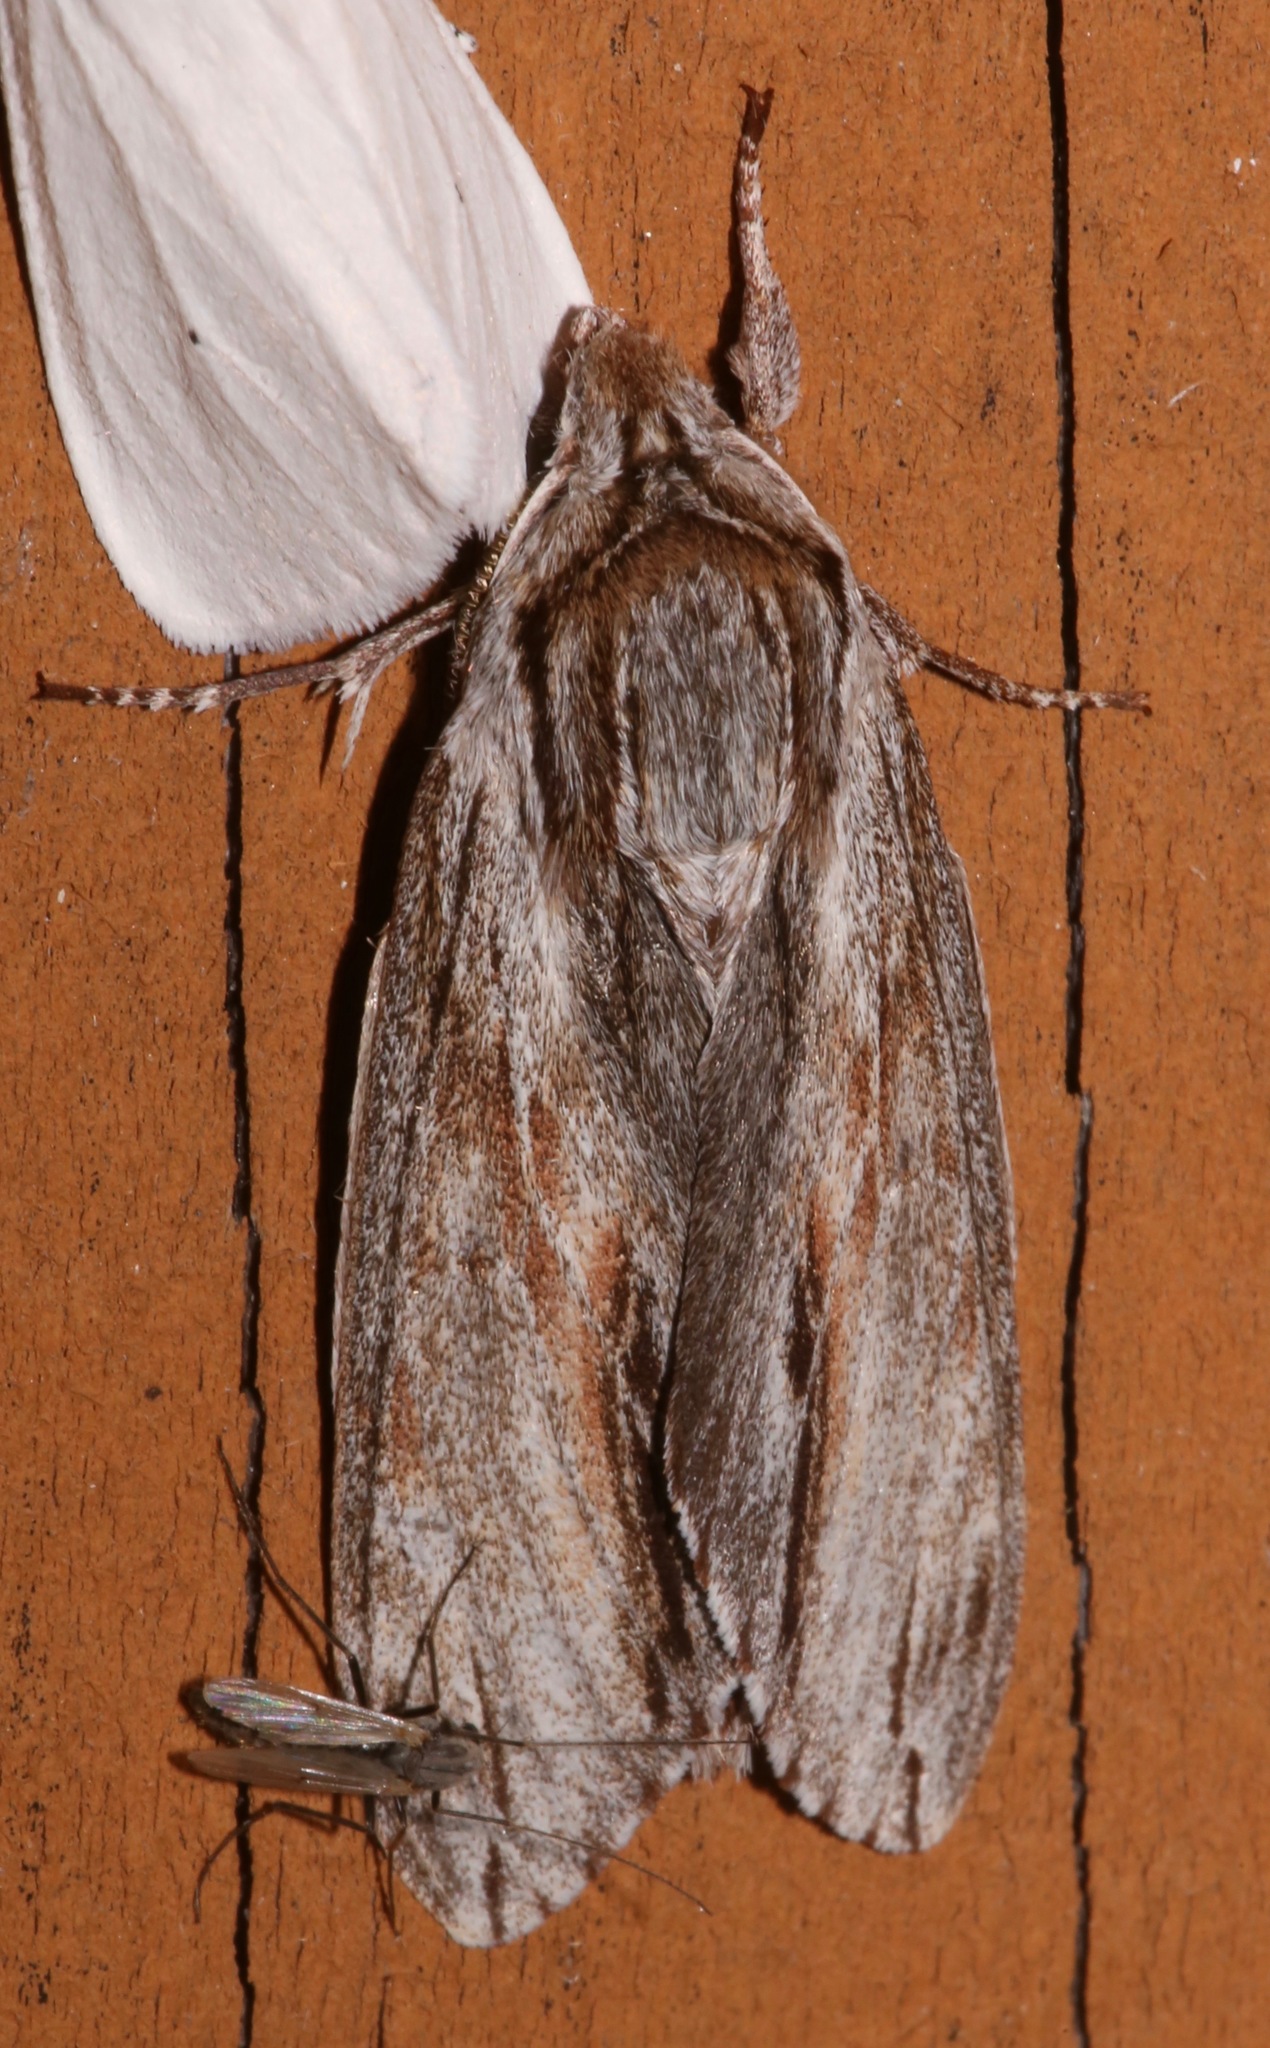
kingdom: Animalia
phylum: Arthropoda
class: Insecta
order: Lepidoptera
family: Sphingidae
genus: Isoparce
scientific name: Isoparce cupressi
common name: Cypress sphinx
